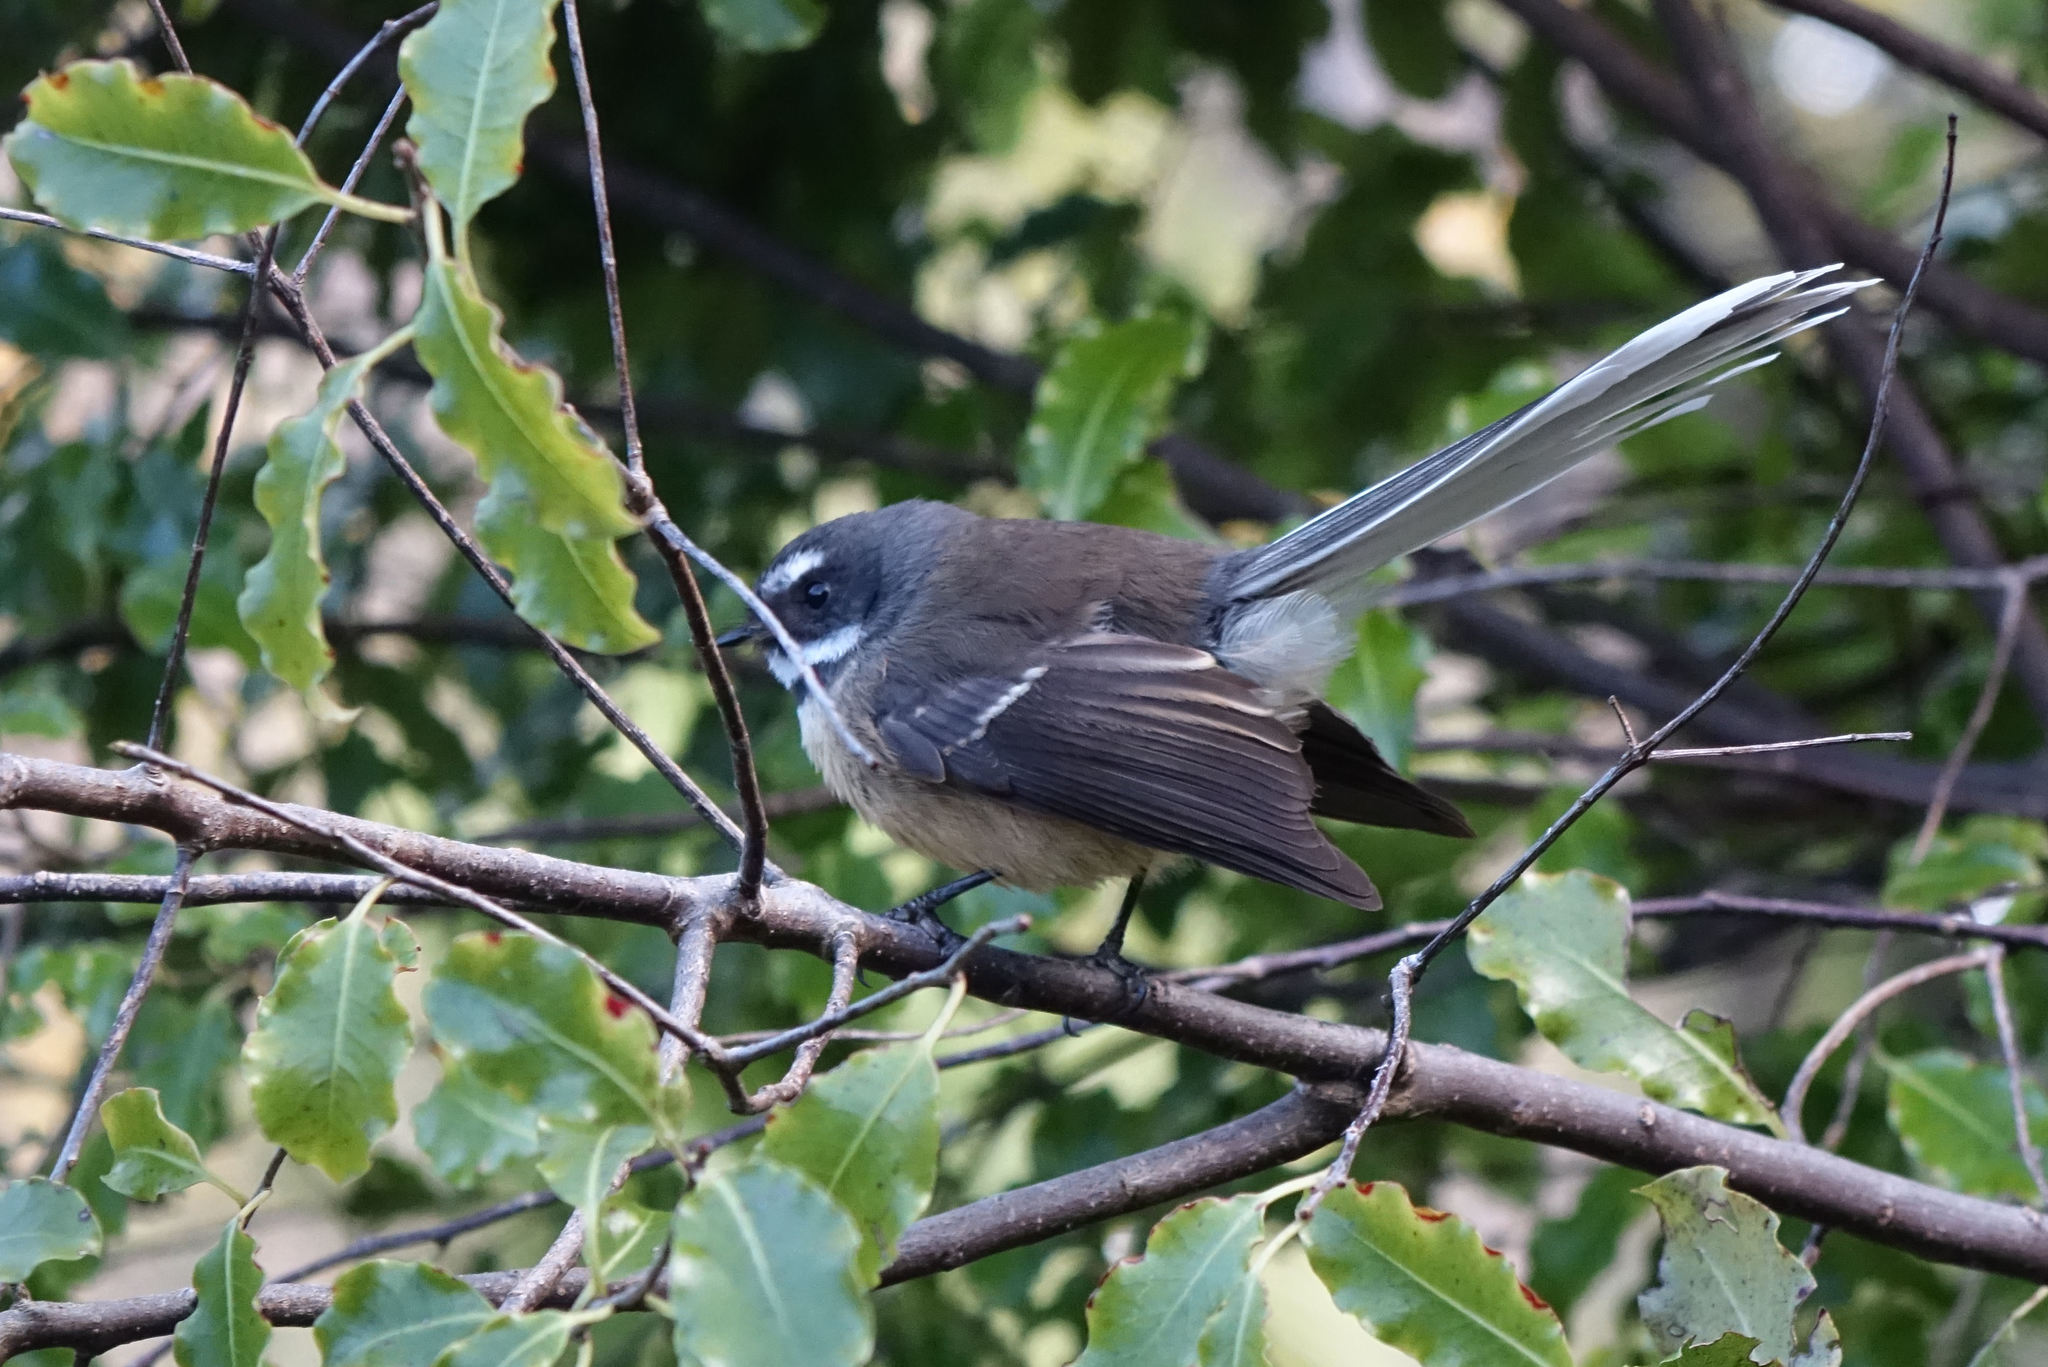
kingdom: Animalia
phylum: Chordata
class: Aves
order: Passeriformes
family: Rhipiduridae
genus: Rhipidura
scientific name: Rhipidura fuliginosa
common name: New zealand fantail
